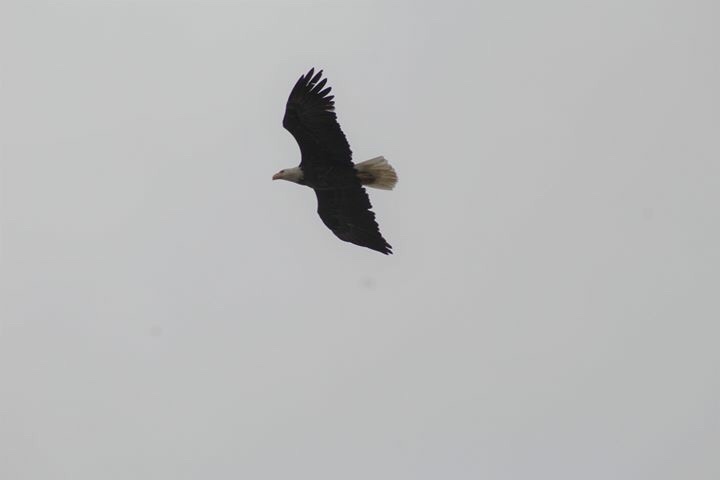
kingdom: Animalia
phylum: Chordata
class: Aves
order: Accipitriformes
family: Accipitridae
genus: Haliaeetus
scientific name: Haliaeetus leucocephalus
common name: Bald eagle
